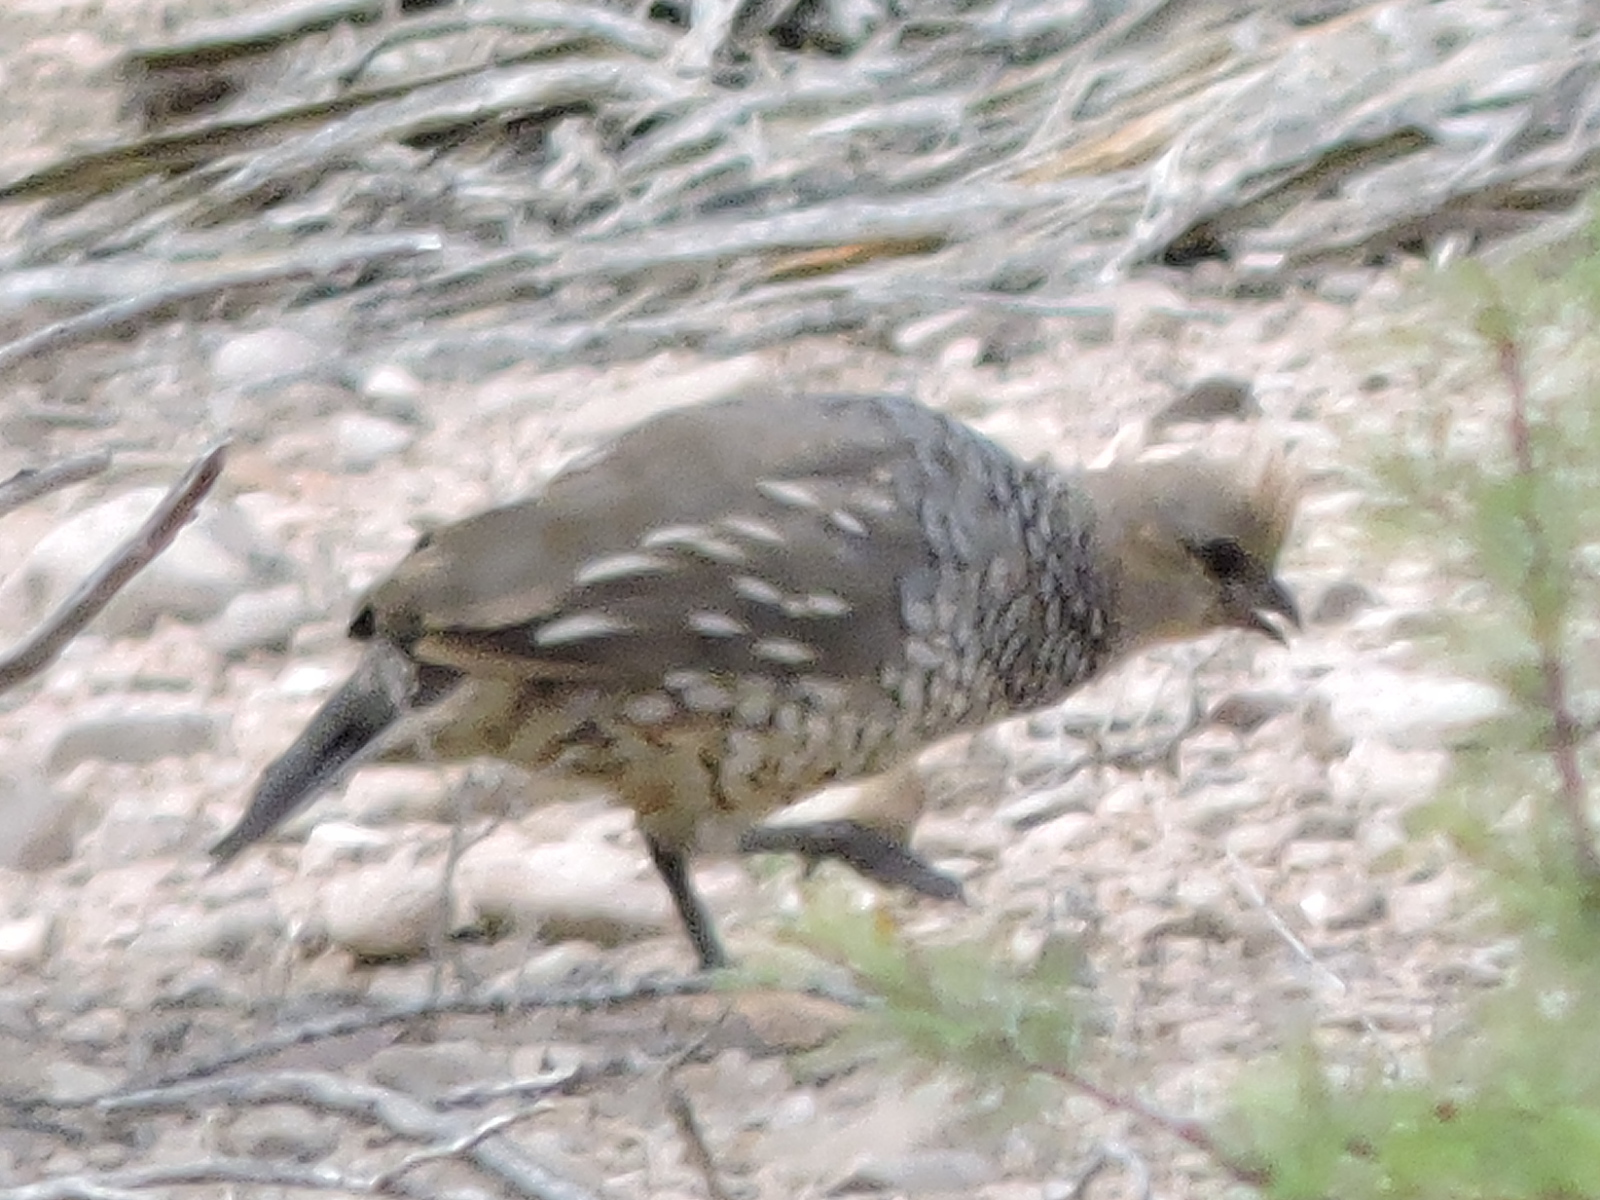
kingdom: Animalia
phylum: Chordata
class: Aves
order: Galliformes
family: Odontophoridae
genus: Callipepla
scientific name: Callipepla squamata
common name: Scaled quail
